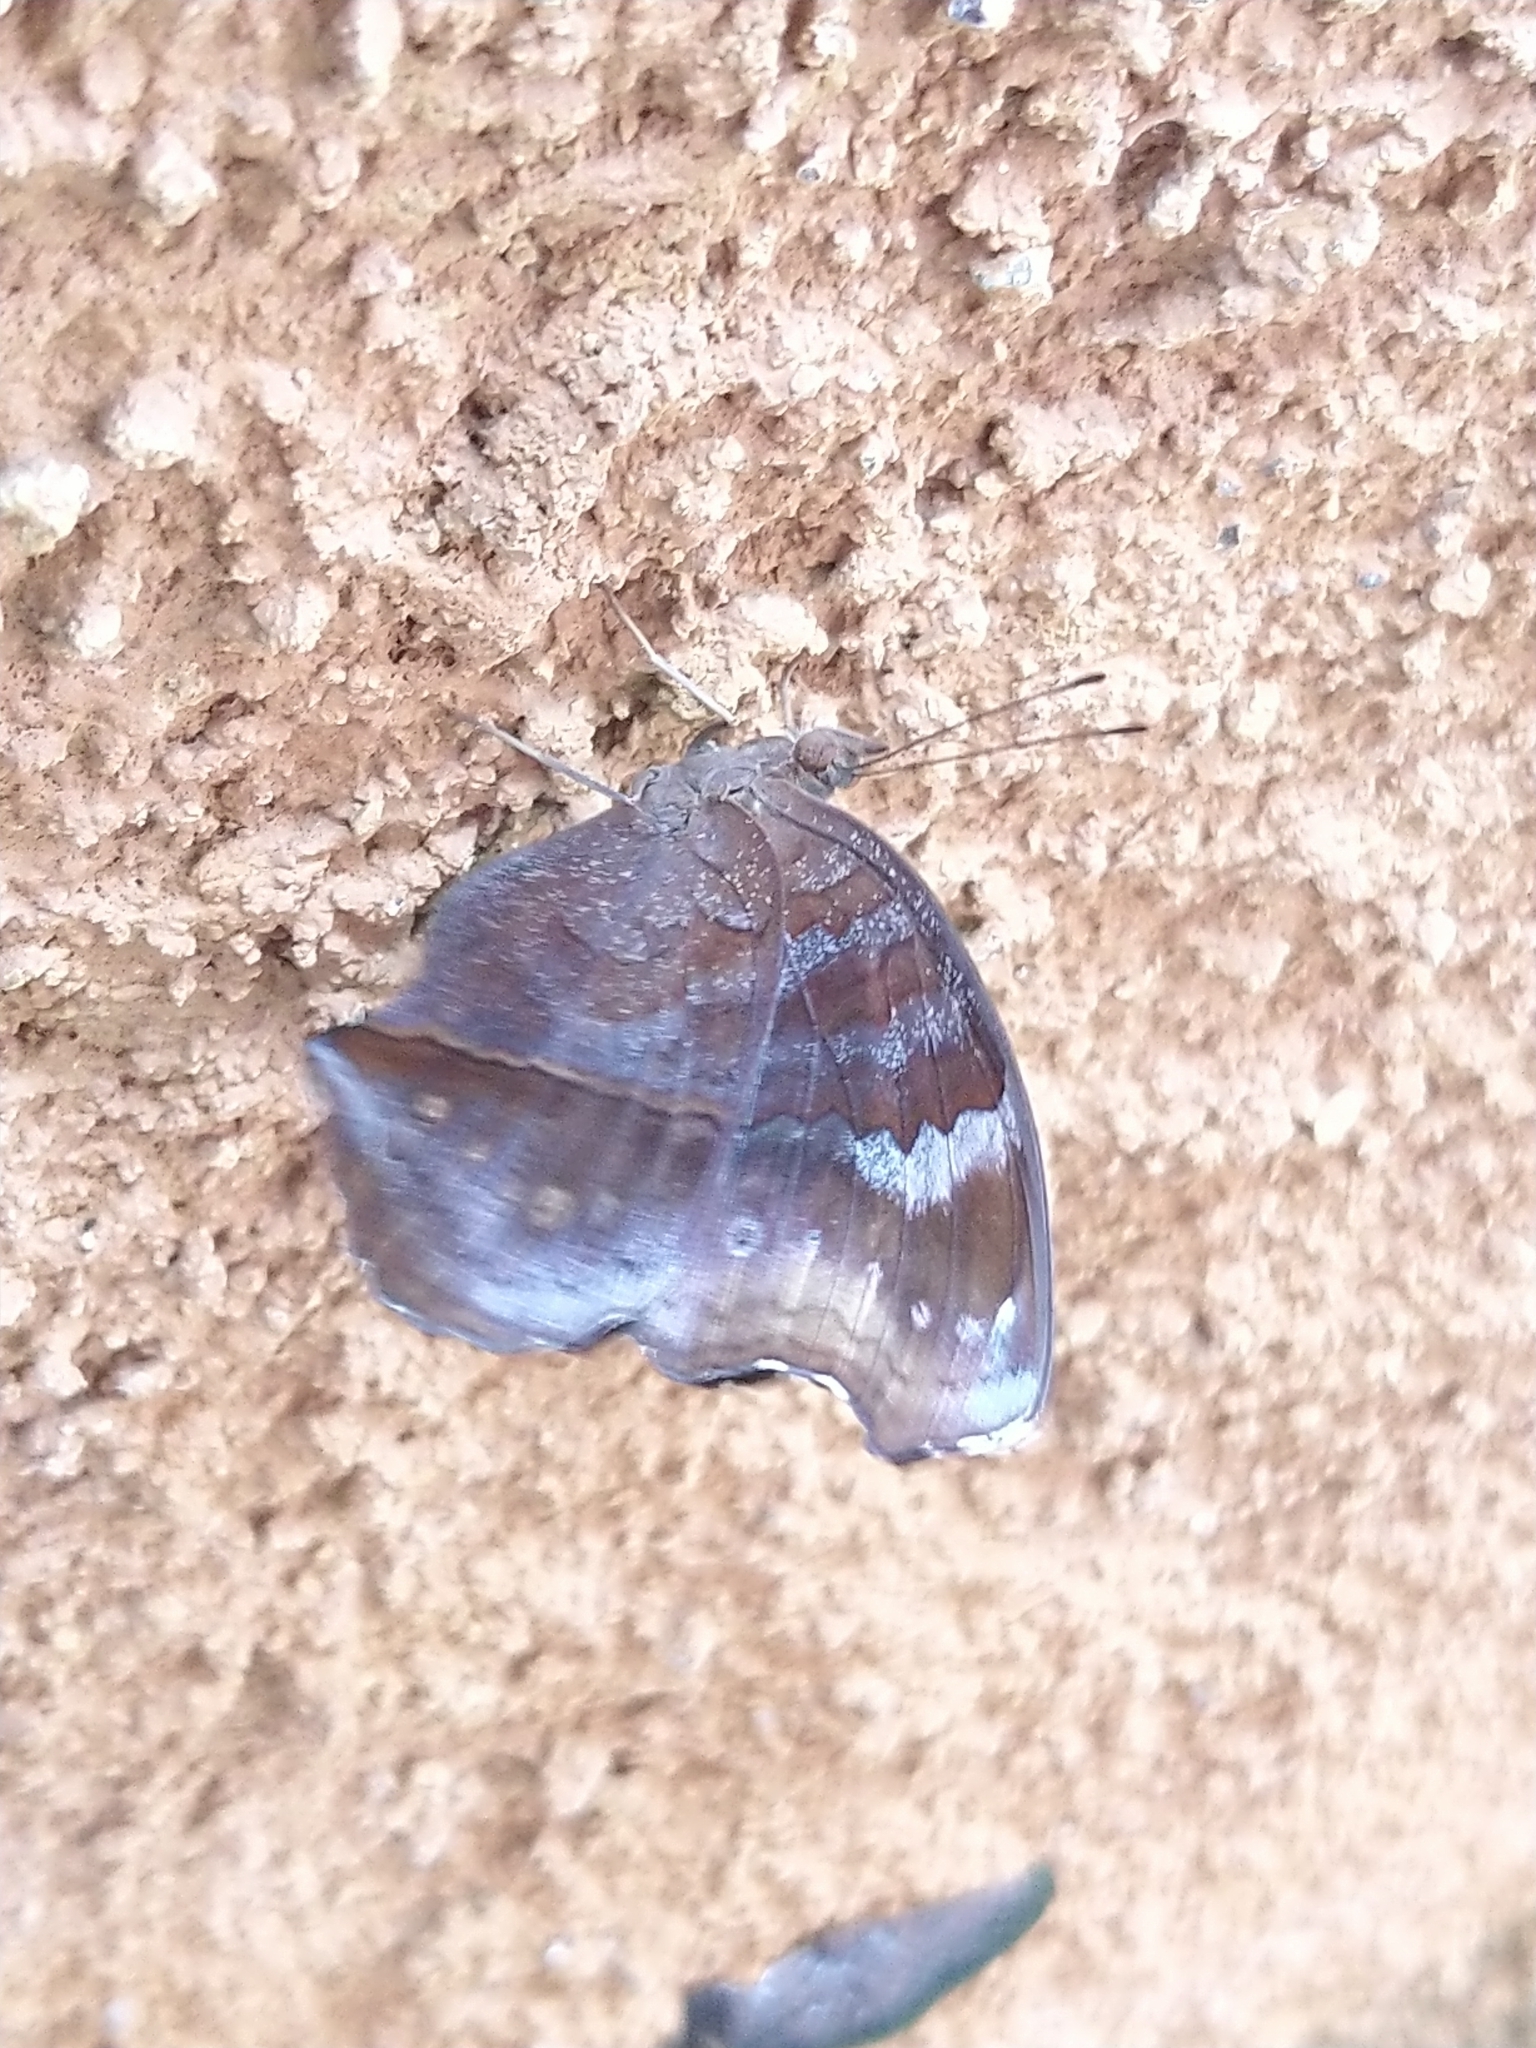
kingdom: Animalia
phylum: Arthropoda
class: Insecta
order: Lepidoptera
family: Nymphalidae
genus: Junonia
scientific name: Junonia iphita
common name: Chocolate pansy
